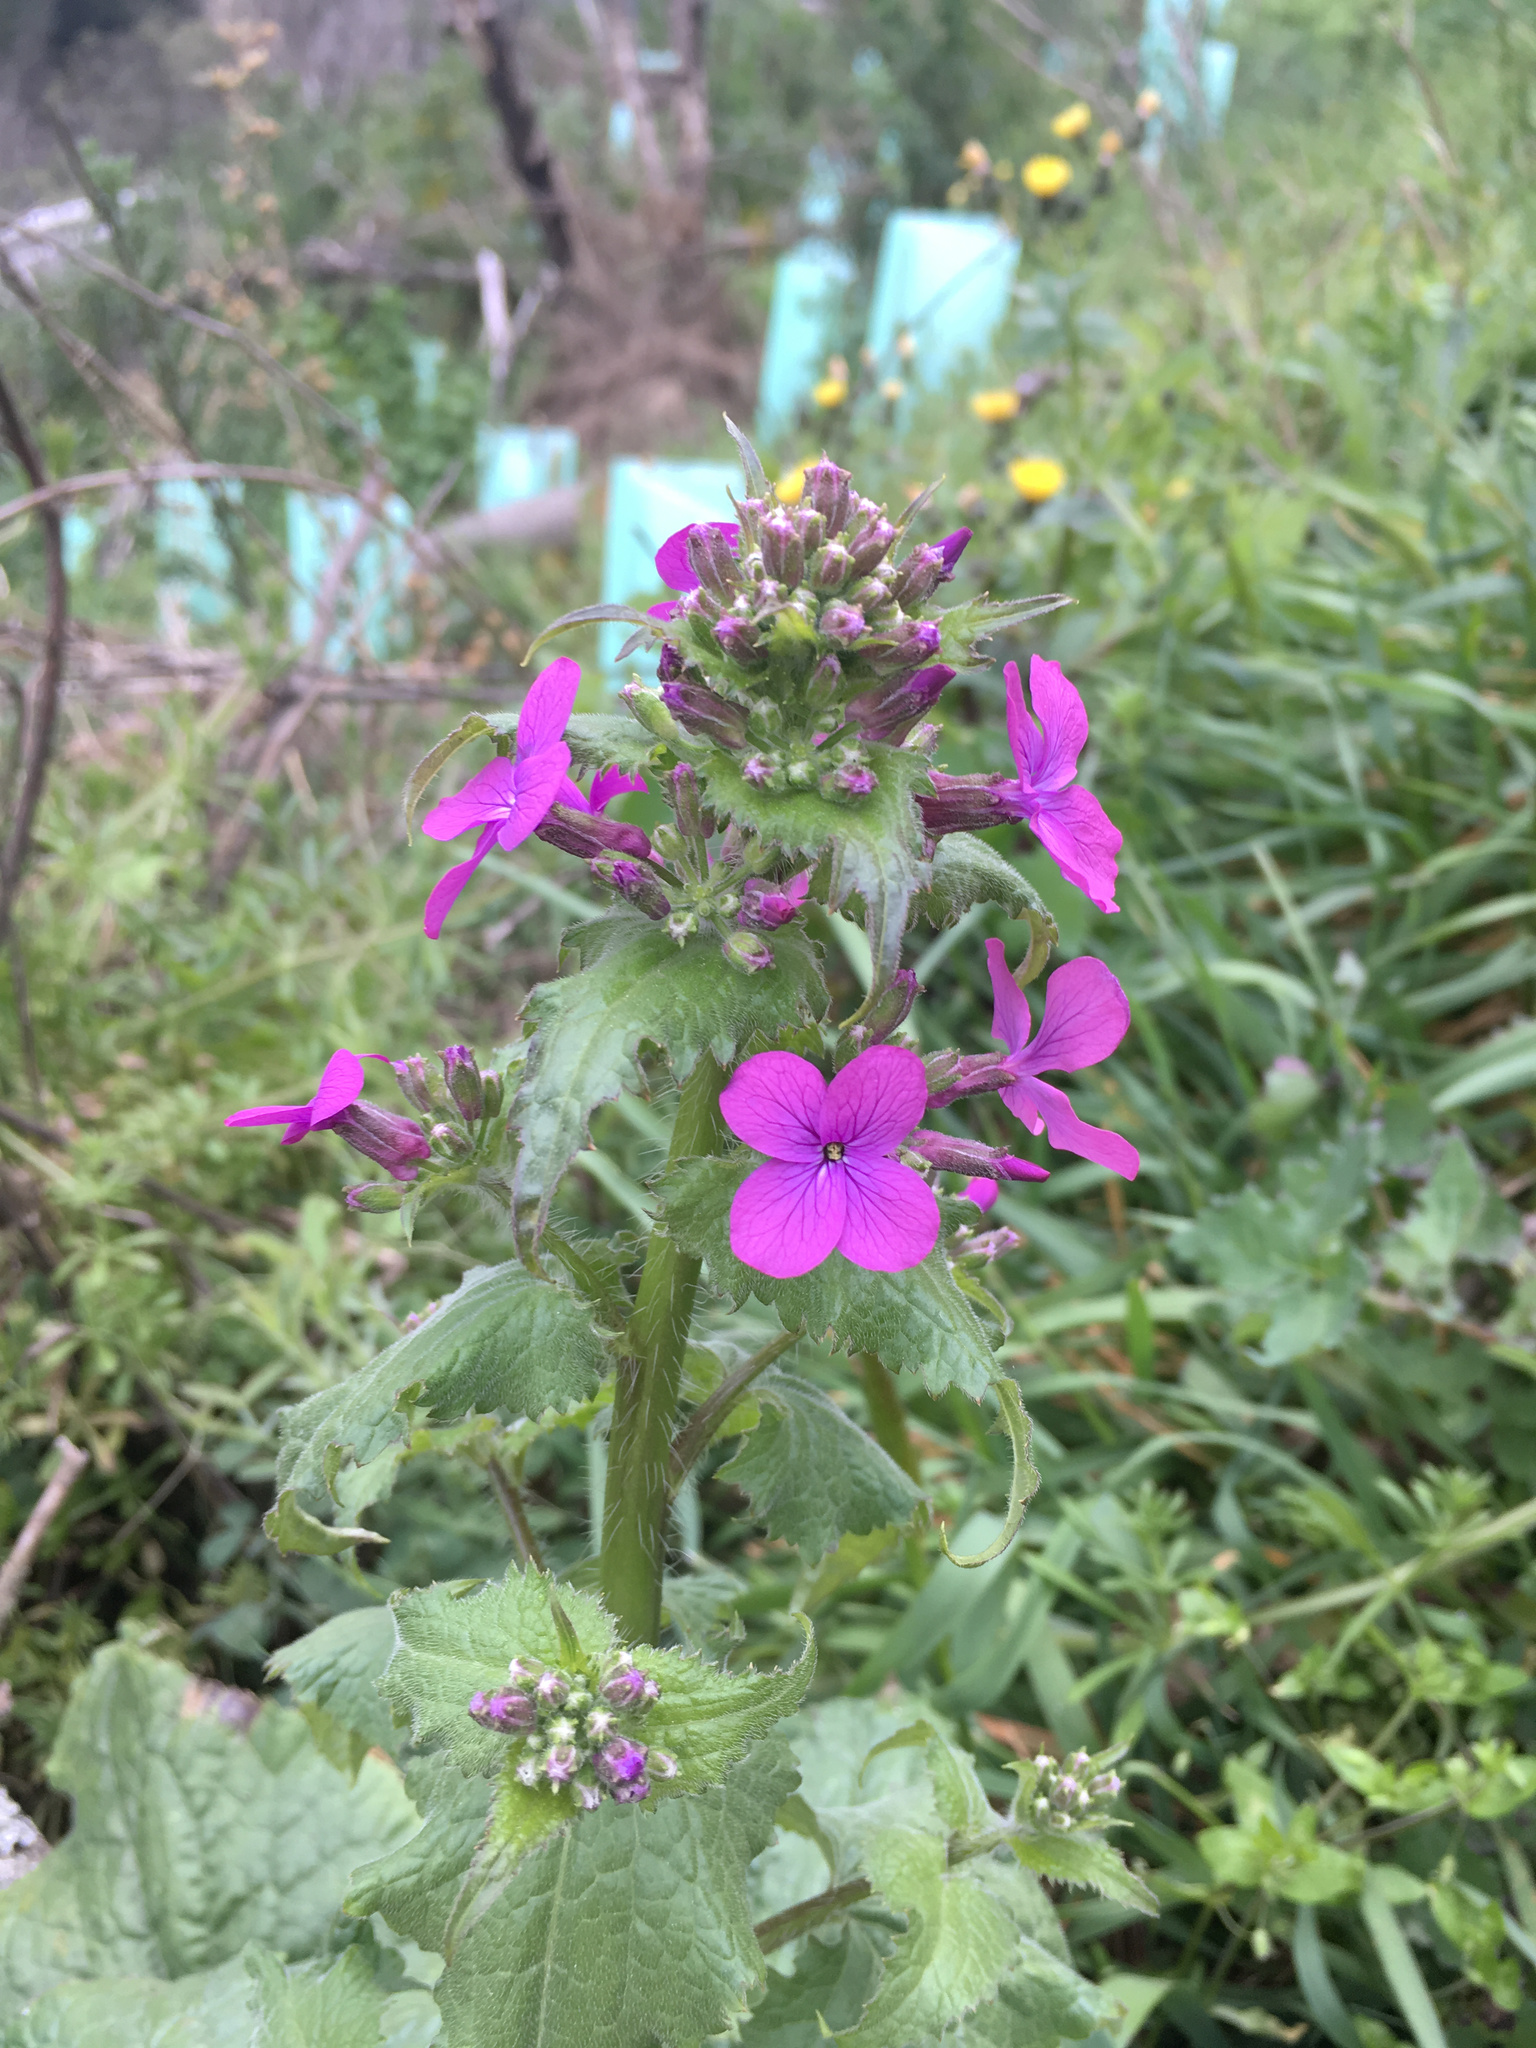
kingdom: Plantae
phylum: Tracheophyta
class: Magnoliopsida
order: Brassicales
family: Brassicaceae
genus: Lunaria
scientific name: Lunaria annua
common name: Honesty
